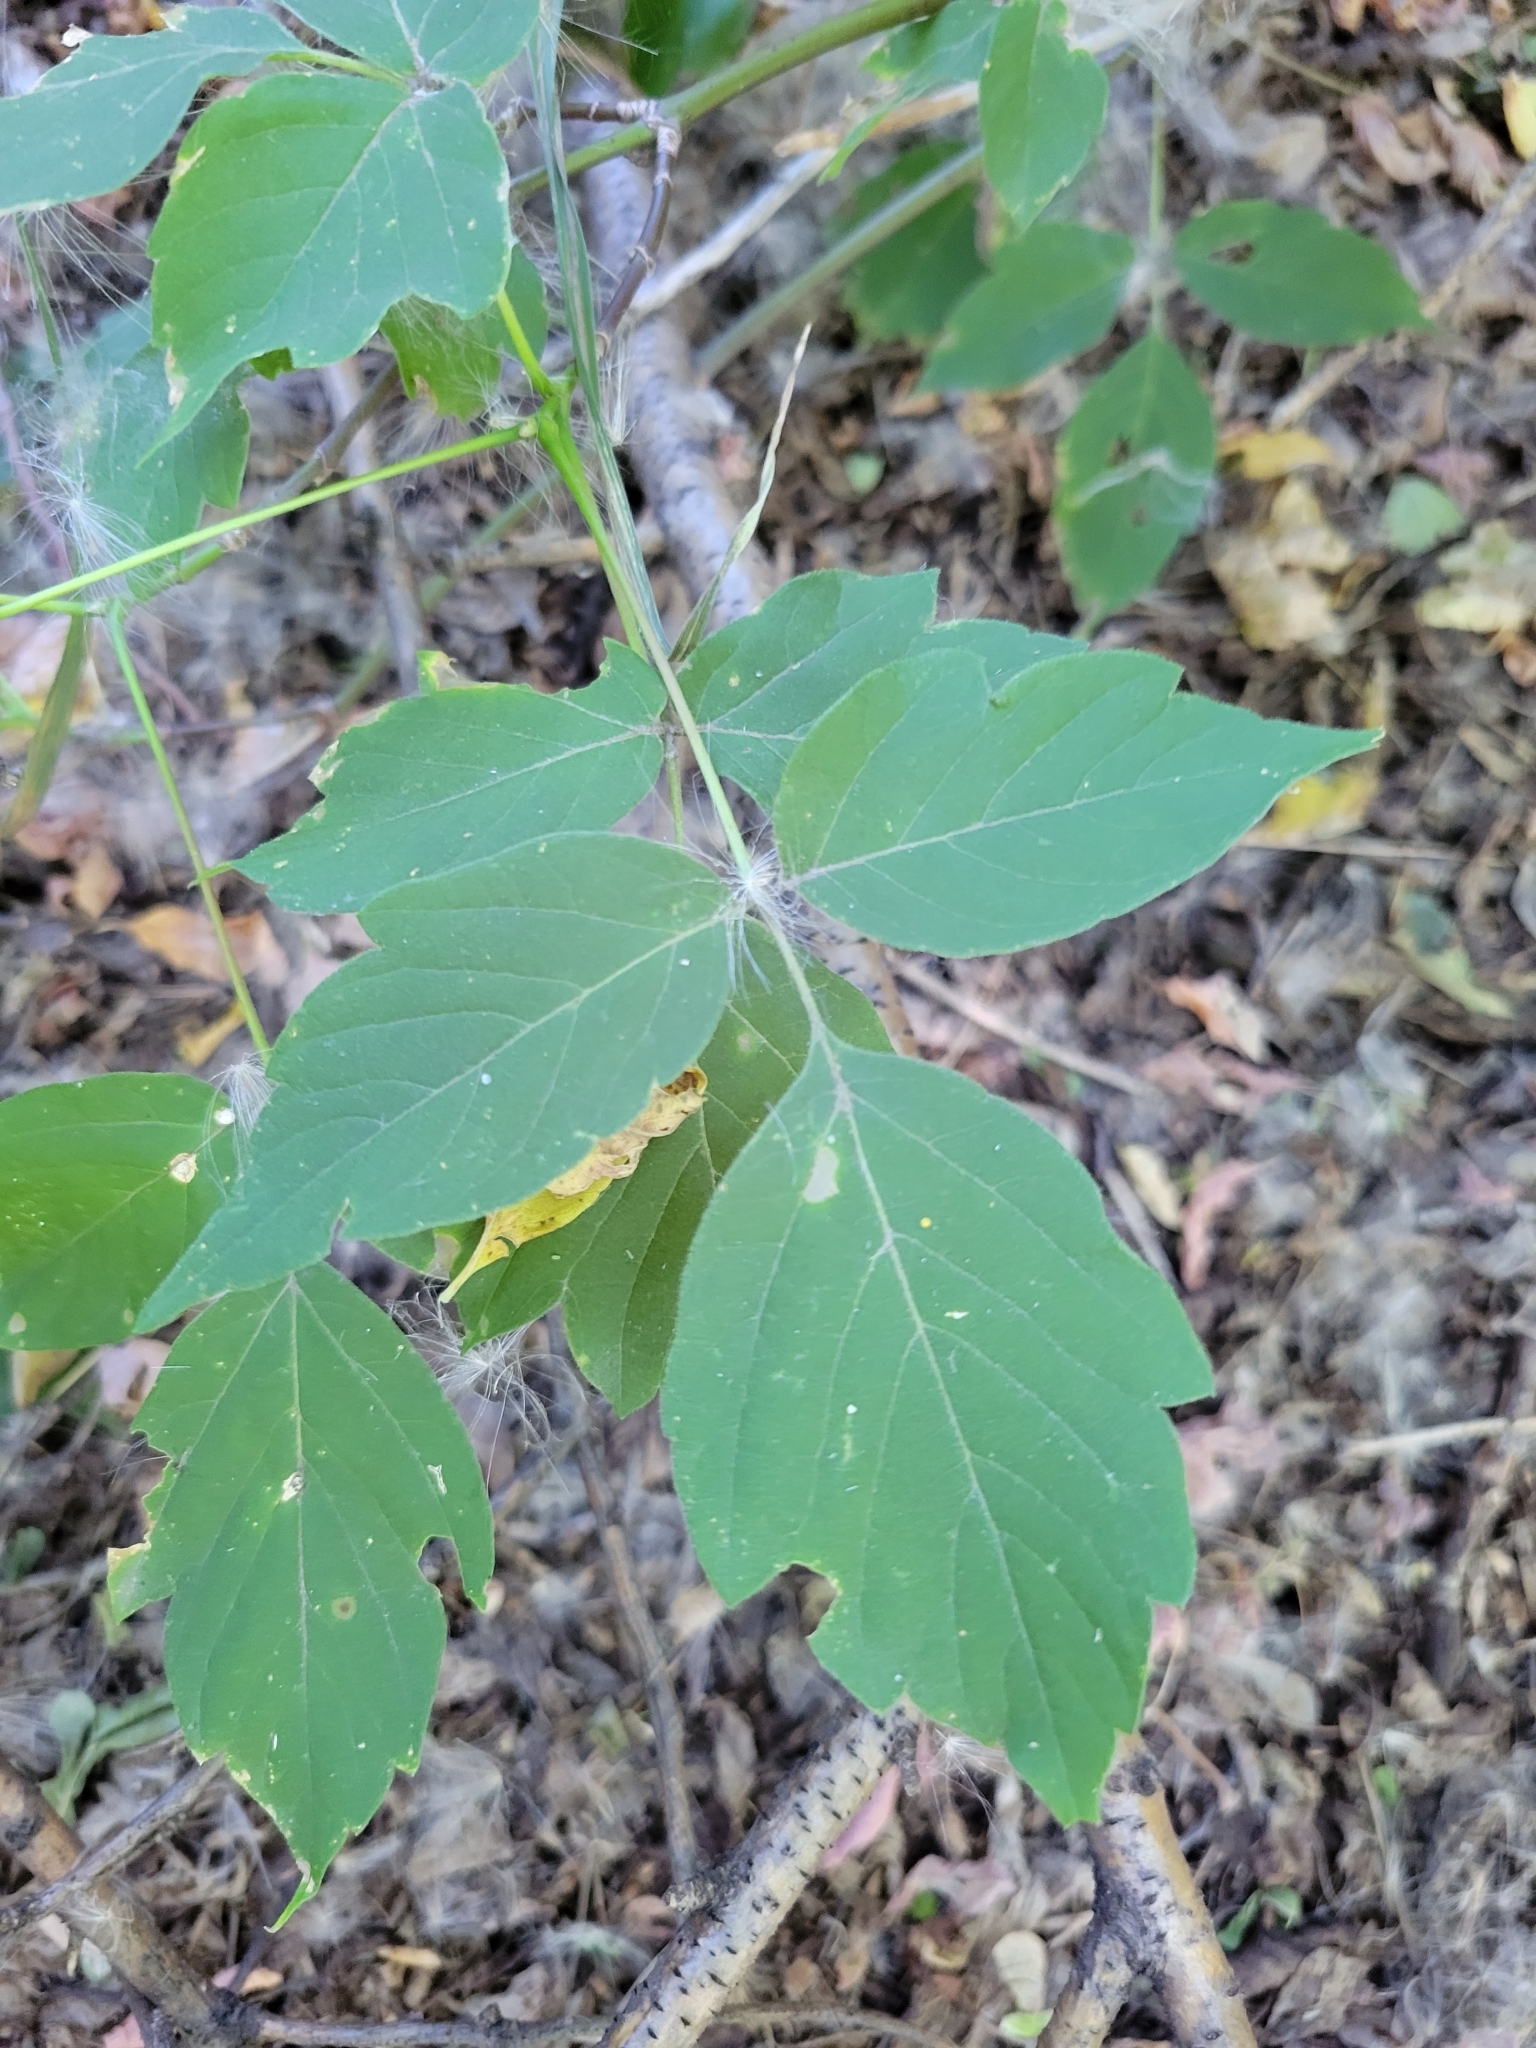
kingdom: Plantae
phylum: Tracheophyta
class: Magnoliopsida
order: Sapindales
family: Sapindaceae
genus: Acer
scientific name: Acer negundo
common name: Ashleaf maple
